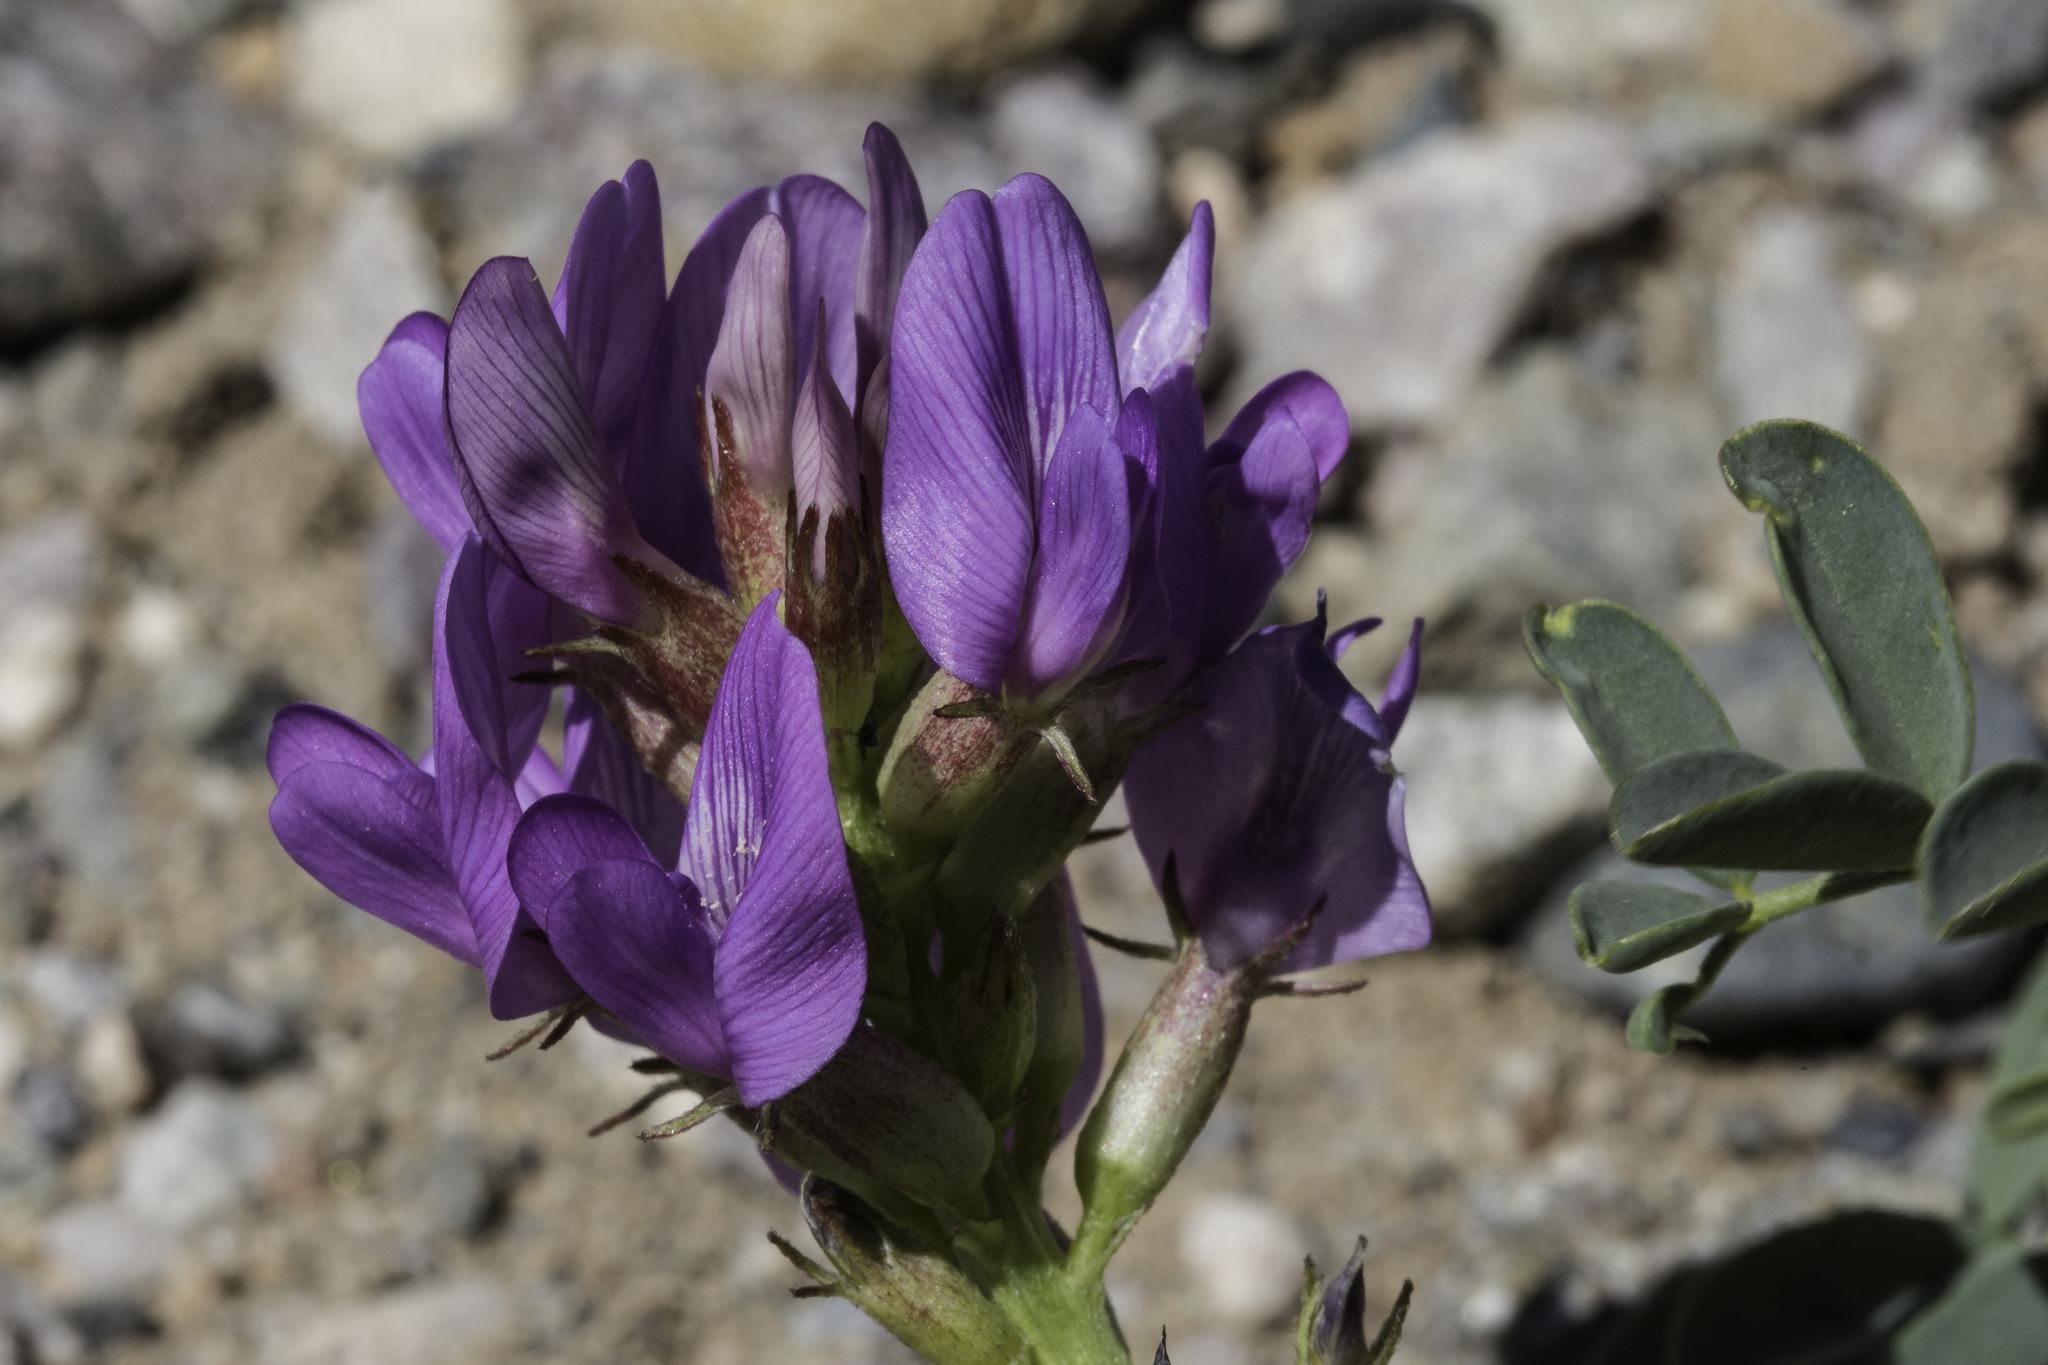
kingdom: Plantae
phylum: Tracheophyta
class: Magnoliopsida
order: Fabales
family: Fabaceae
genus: Astragalus
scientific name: Astragalus lentiginosus
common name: Freckled milkvetch
